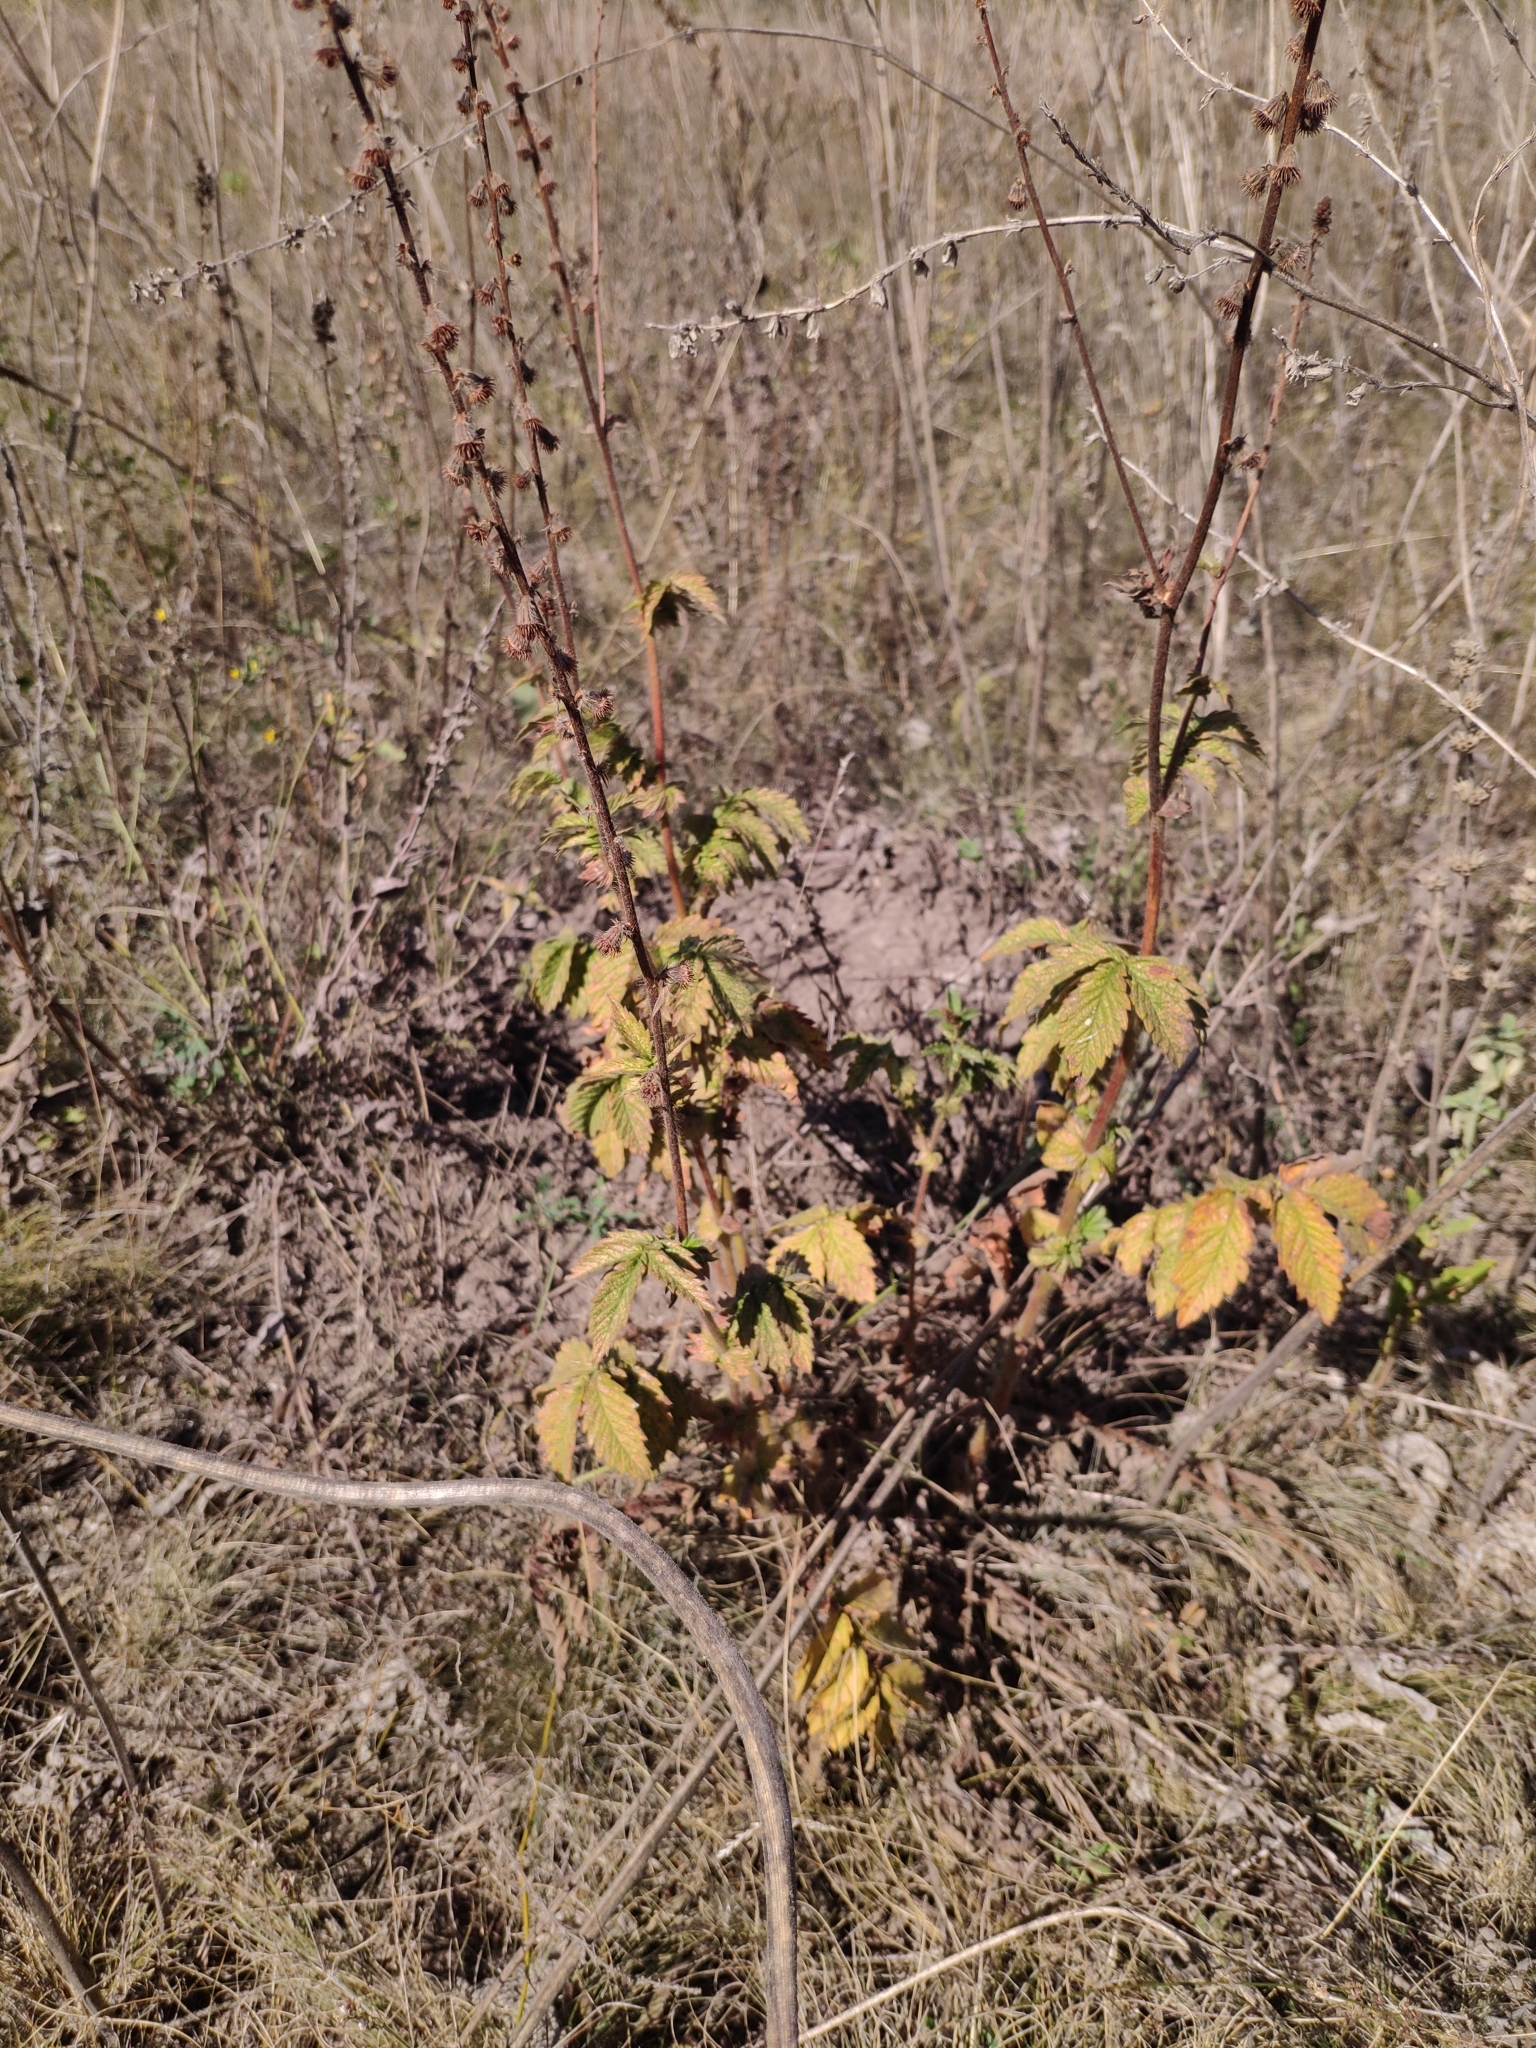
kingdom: Plantae
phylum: Tracheophyta
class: Magnoliopsida
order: Rosales
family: Rosaceae
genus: Agrimonia
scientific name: Agrimonia eupatoria
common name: Agrimony
